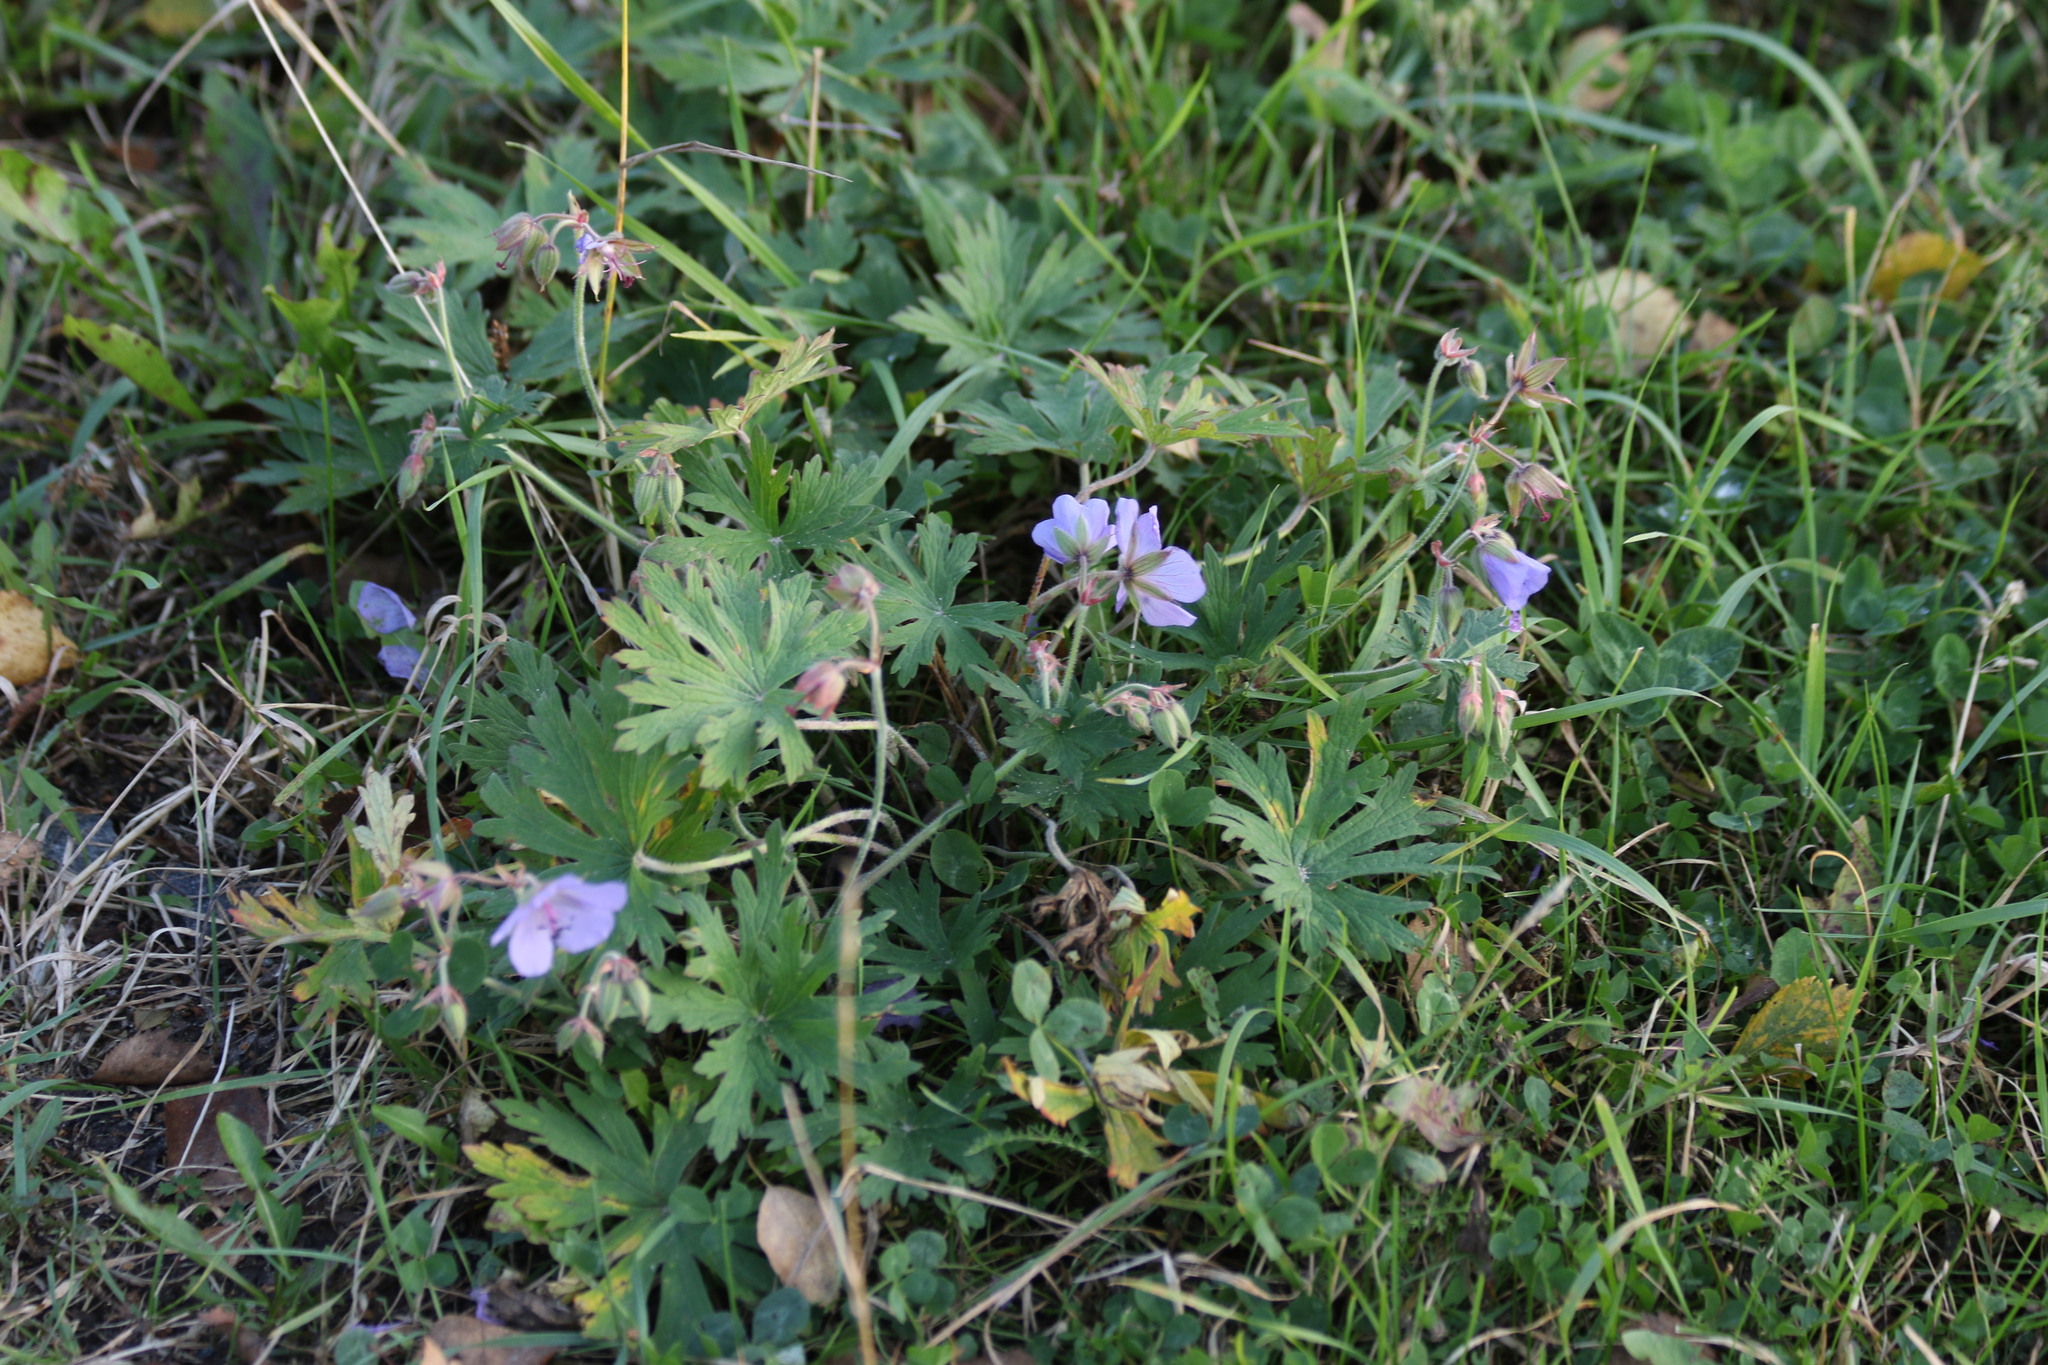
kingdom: Plantae
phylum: Tracheophyta
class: Magnoliopsida
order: Geraniales
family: Geraniaceae
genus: Geranium
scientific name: Geranium pratense
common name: Meadow crane's-bill
